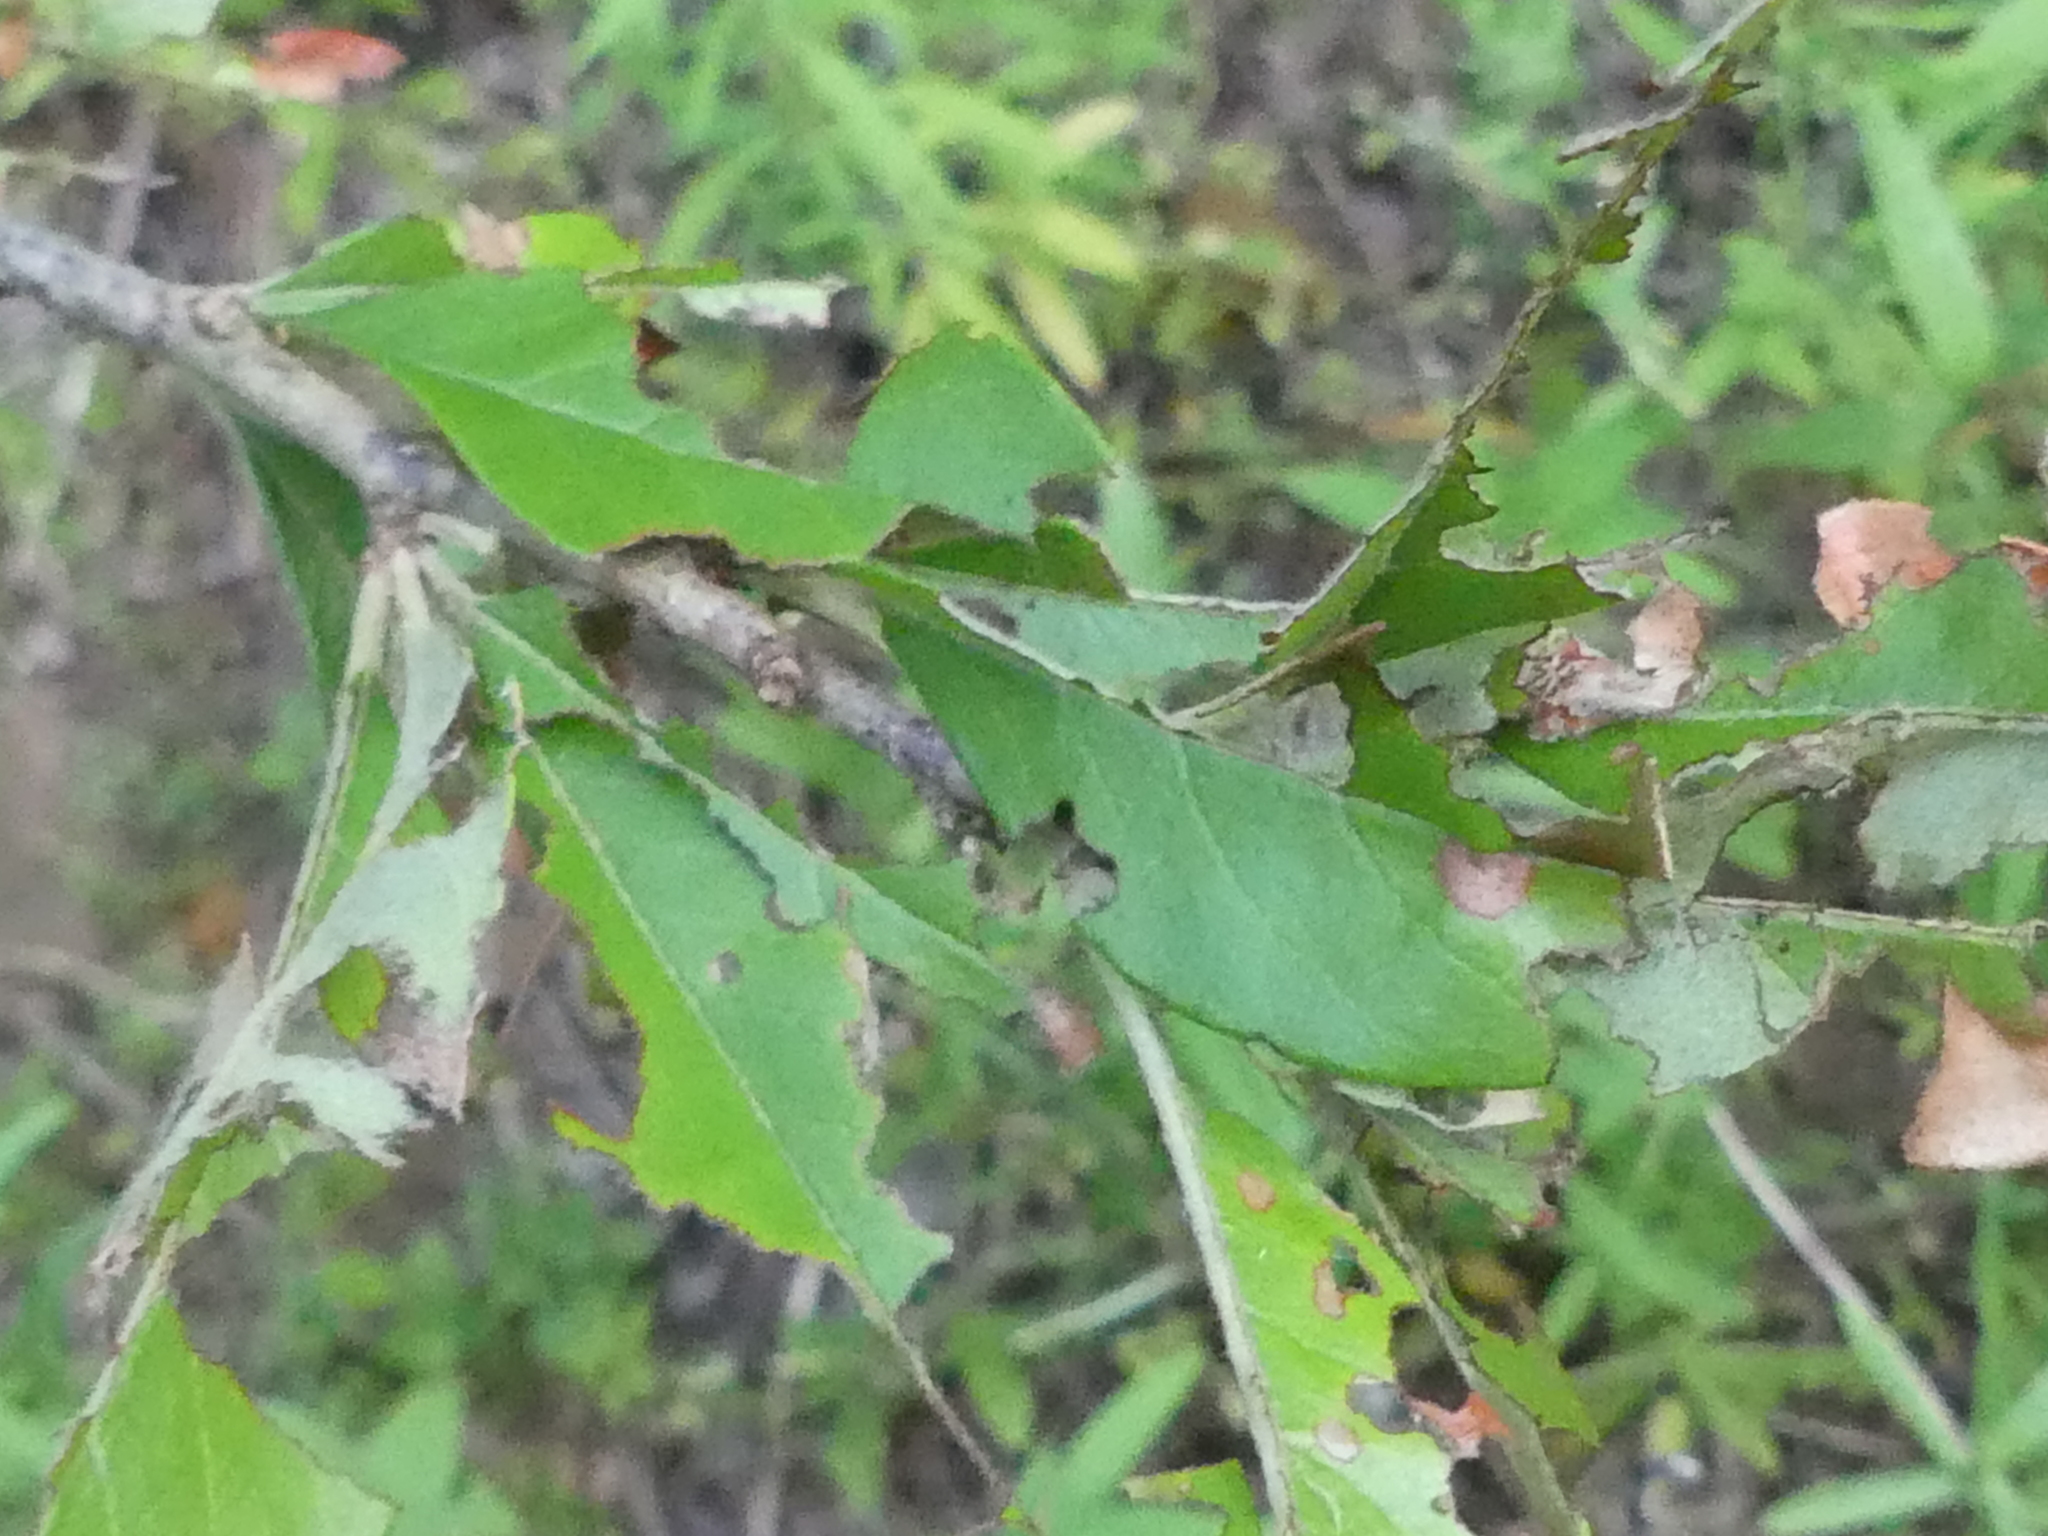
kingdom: Plantae
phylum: Tracheophyta
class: Magnoliopsida
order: Ericales
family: Sapotaceae
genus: Sideroxylon
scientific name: Sideroxylon lanuginosum
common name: Chittamwood
